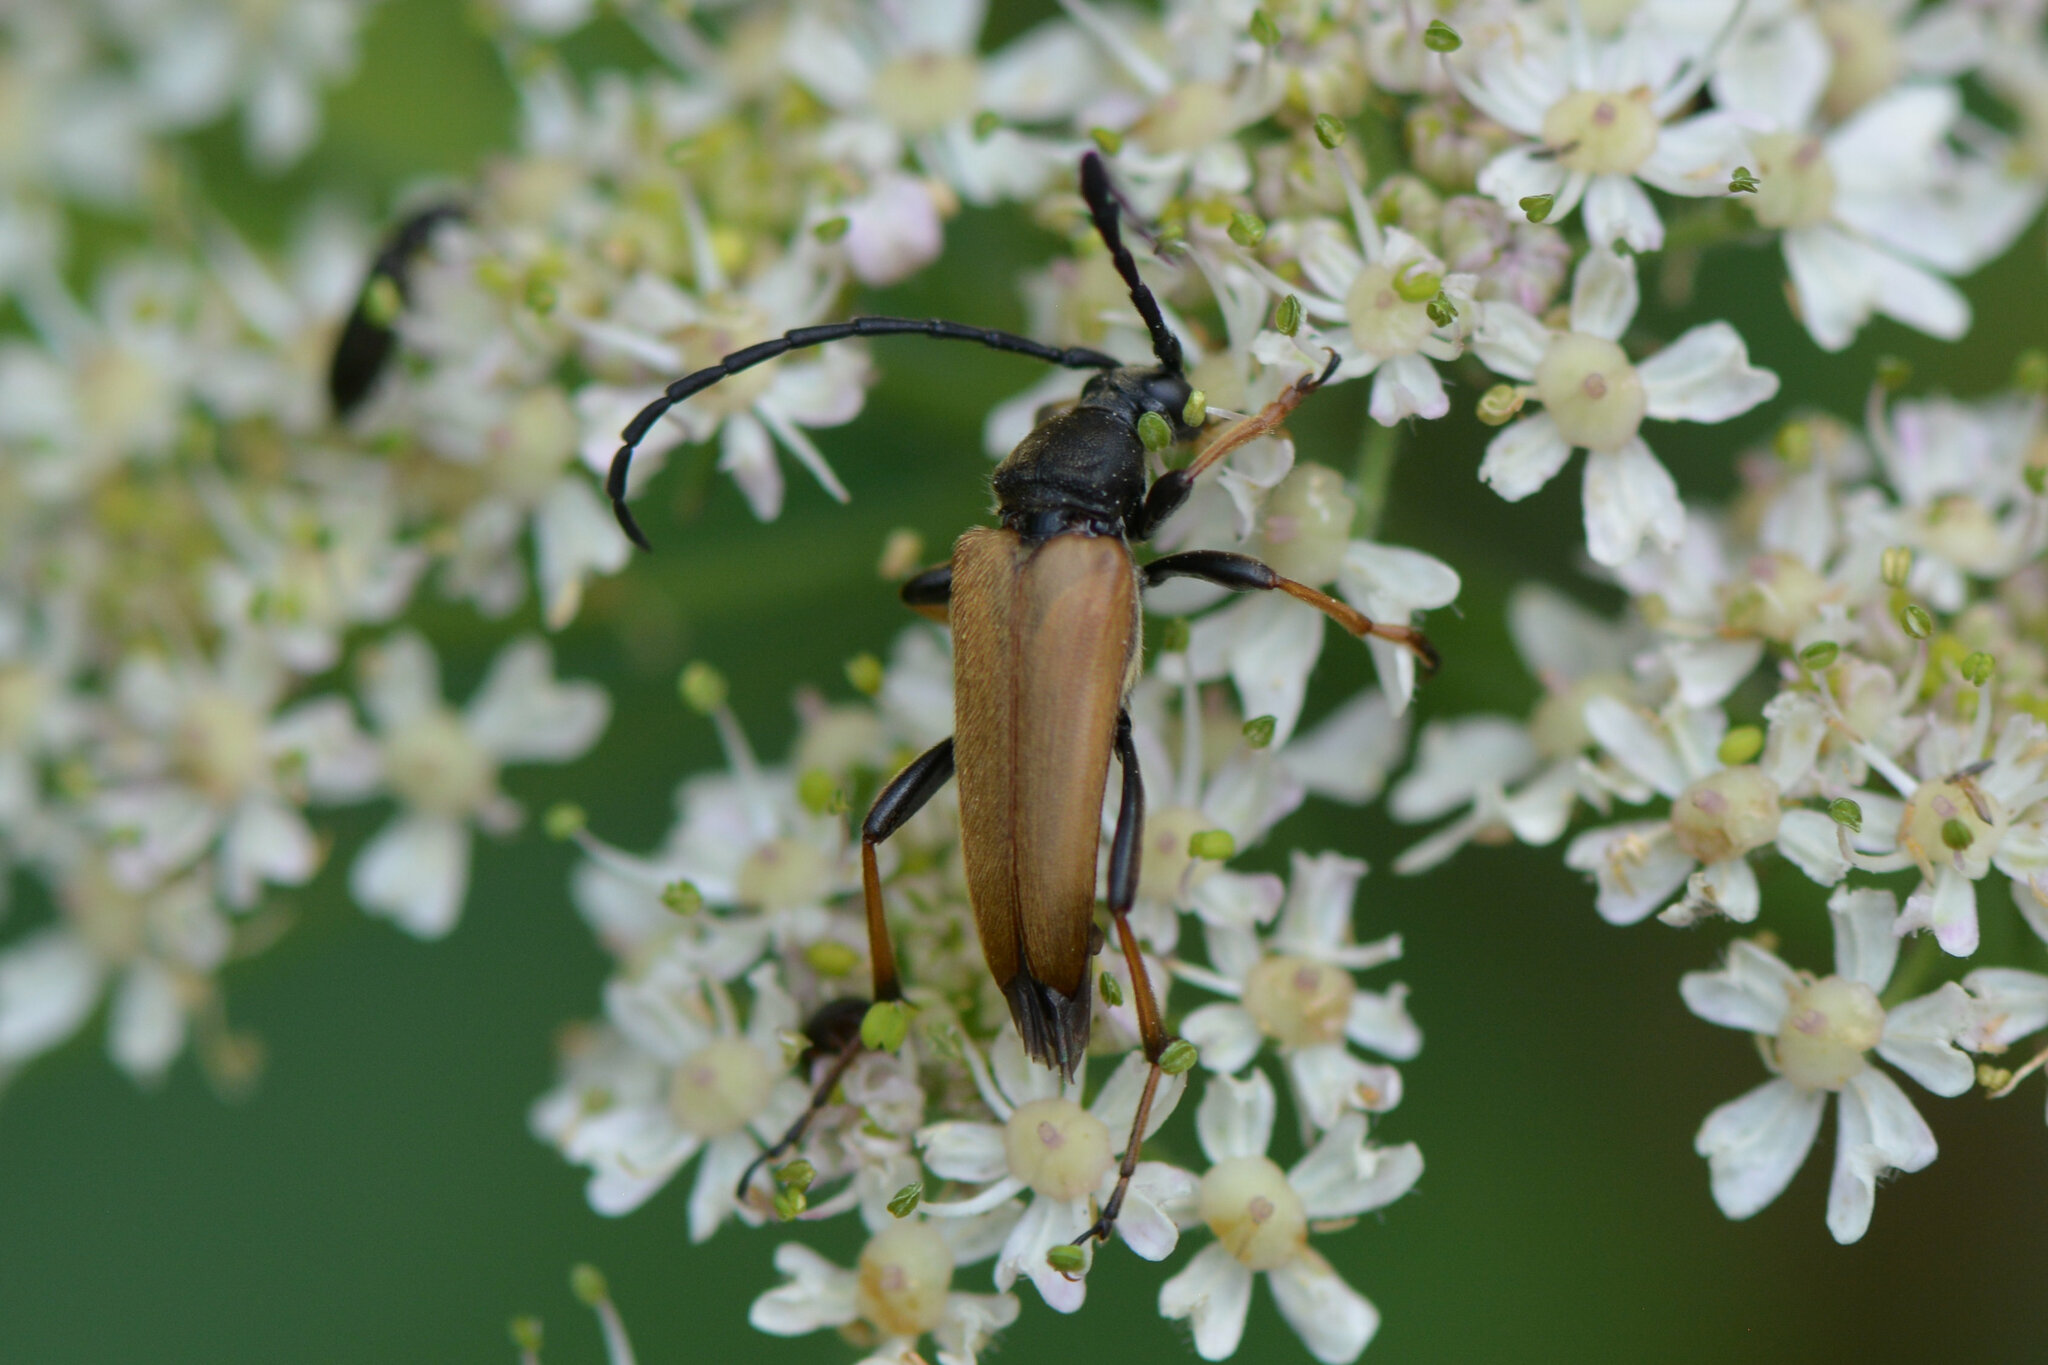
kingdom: Animalia
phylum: Arthropoda
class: Insecta
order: Coleoptera
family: Cerambycidae
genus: Stictoleptura
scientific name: Stictoleptura rubra
